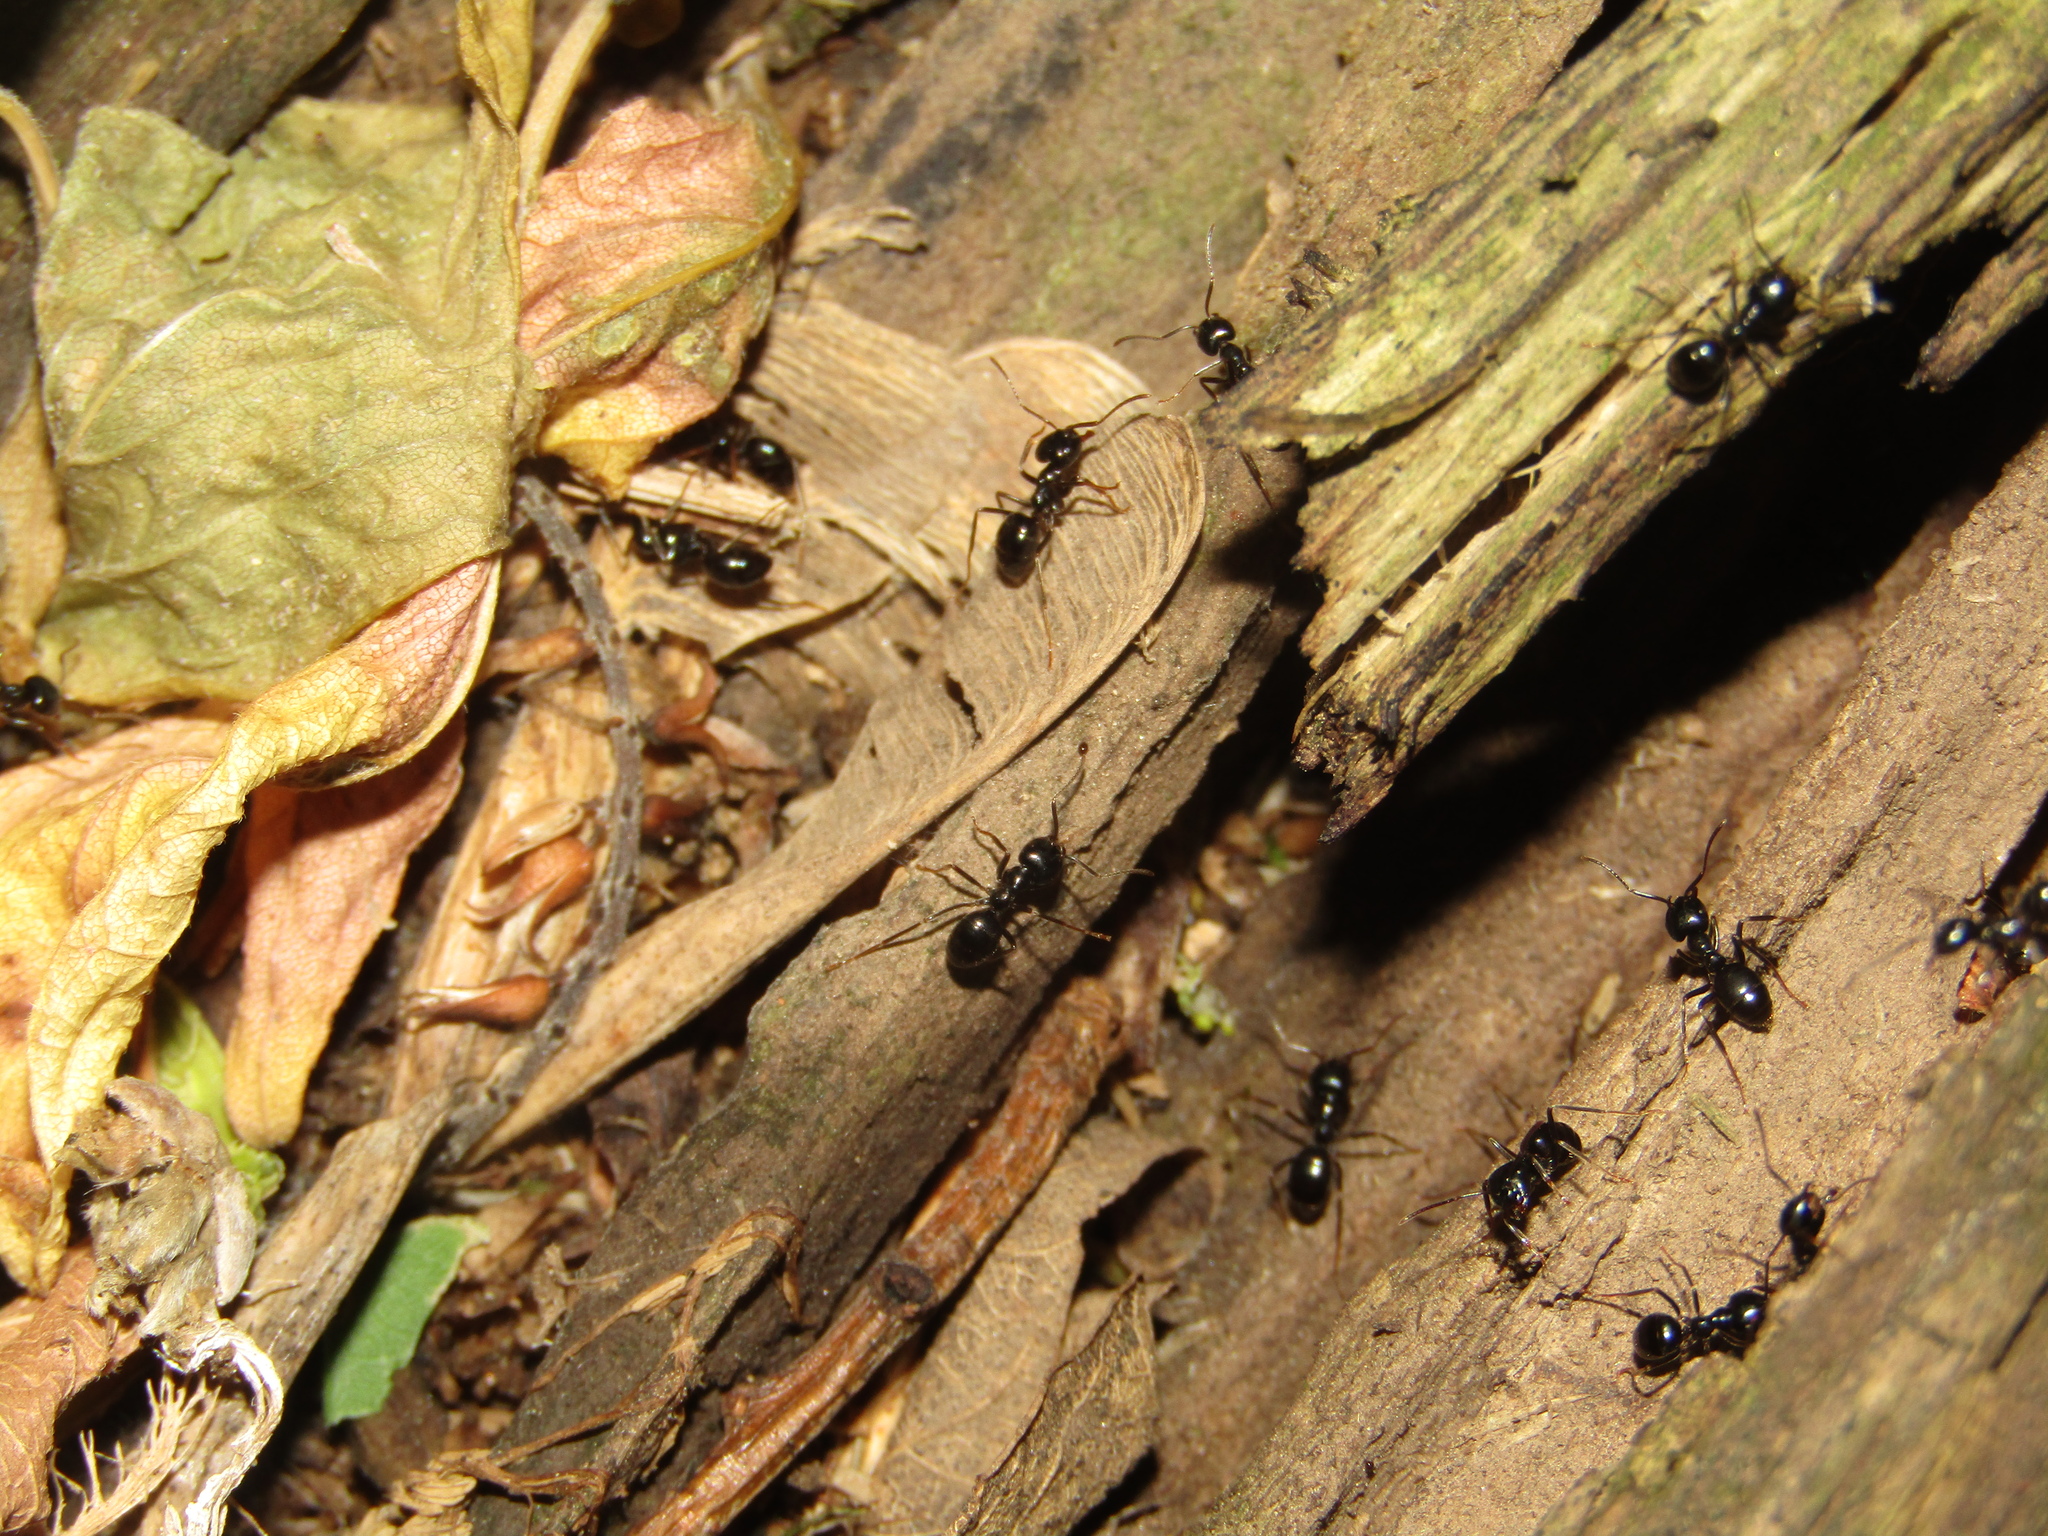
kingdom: Animalia
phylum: Arthropoda
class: Insecta
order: Hymenoptera
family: Formicidae
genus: Lasius
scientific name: Lasius fuliginosus
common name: Jet ant
